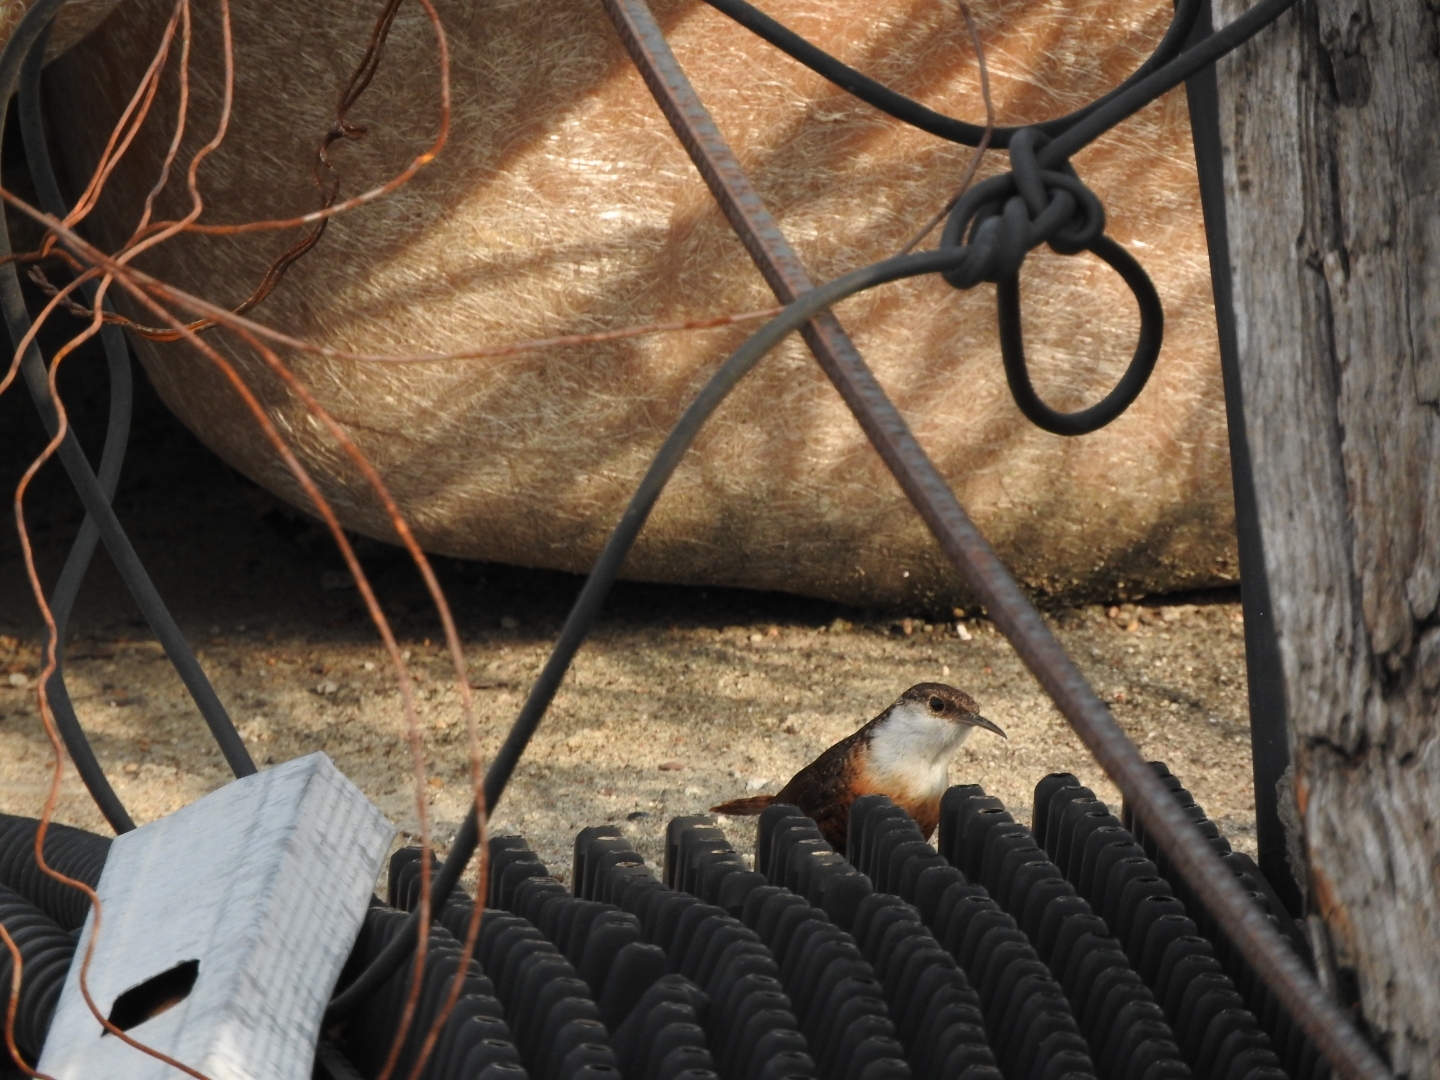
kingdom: Animalia
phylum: Chordata
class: Aves
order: Passeriformes
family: Troglodytidae
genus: Catherpes
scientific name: Catherpes mexicanus
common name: Canyon wren
